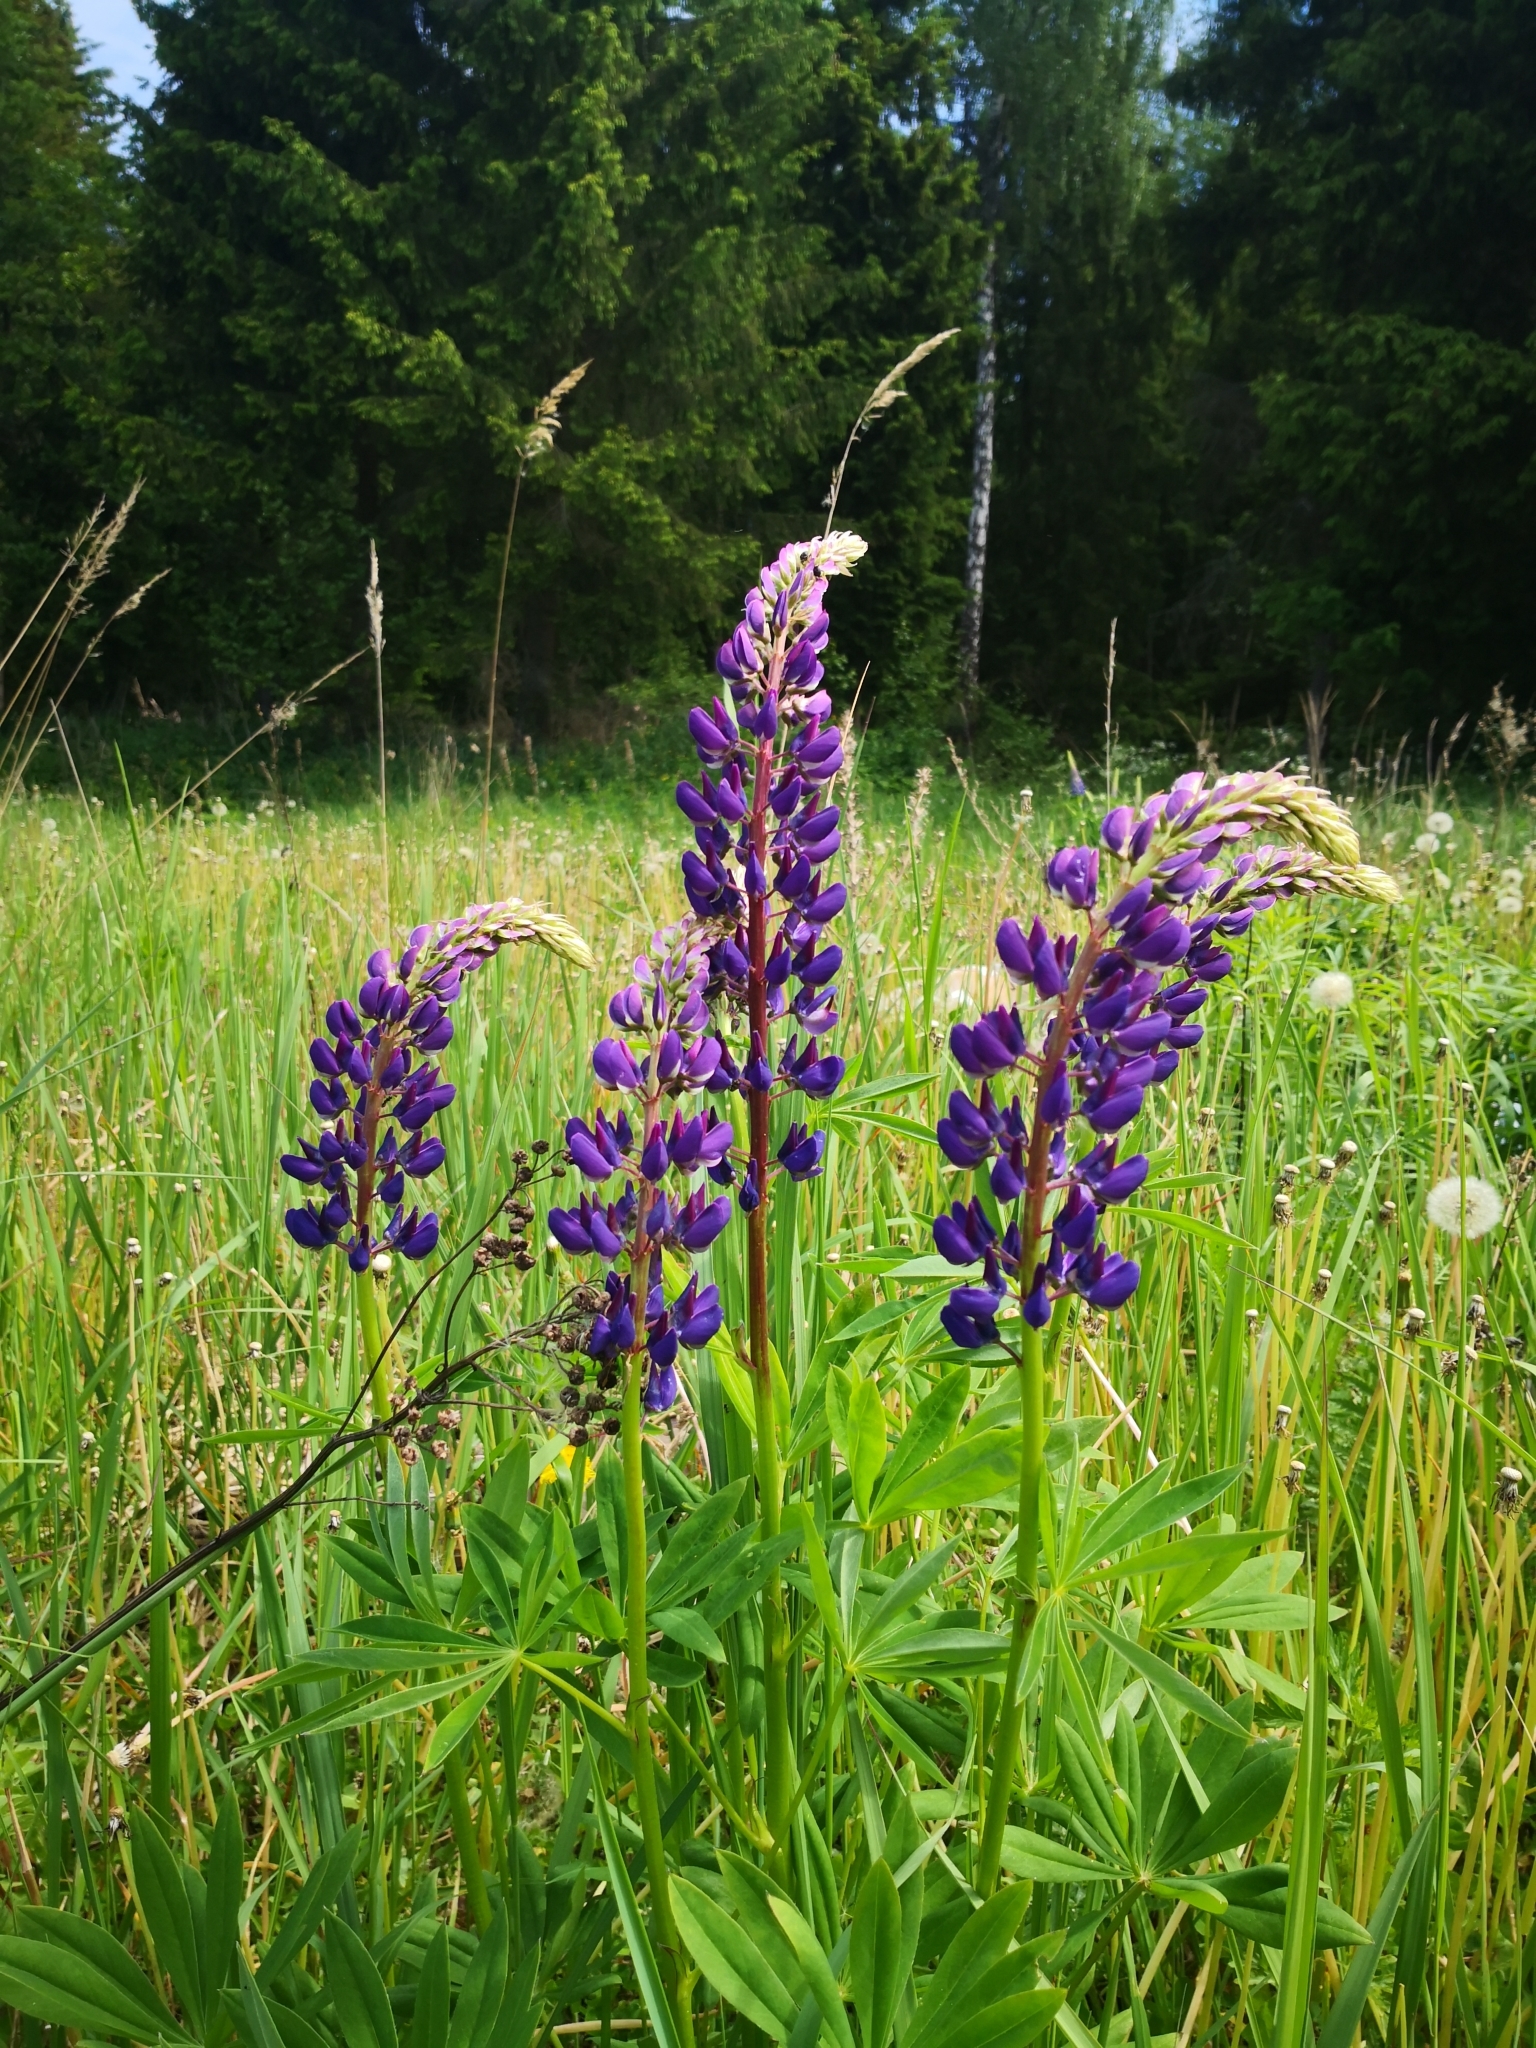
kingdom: Plantae
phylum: Tracheophyta
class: Magnoliopsida
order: Fabales
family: Fabaceae
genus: Lupinus
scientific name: Lupinus polyphyllus
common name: Garden lupin
